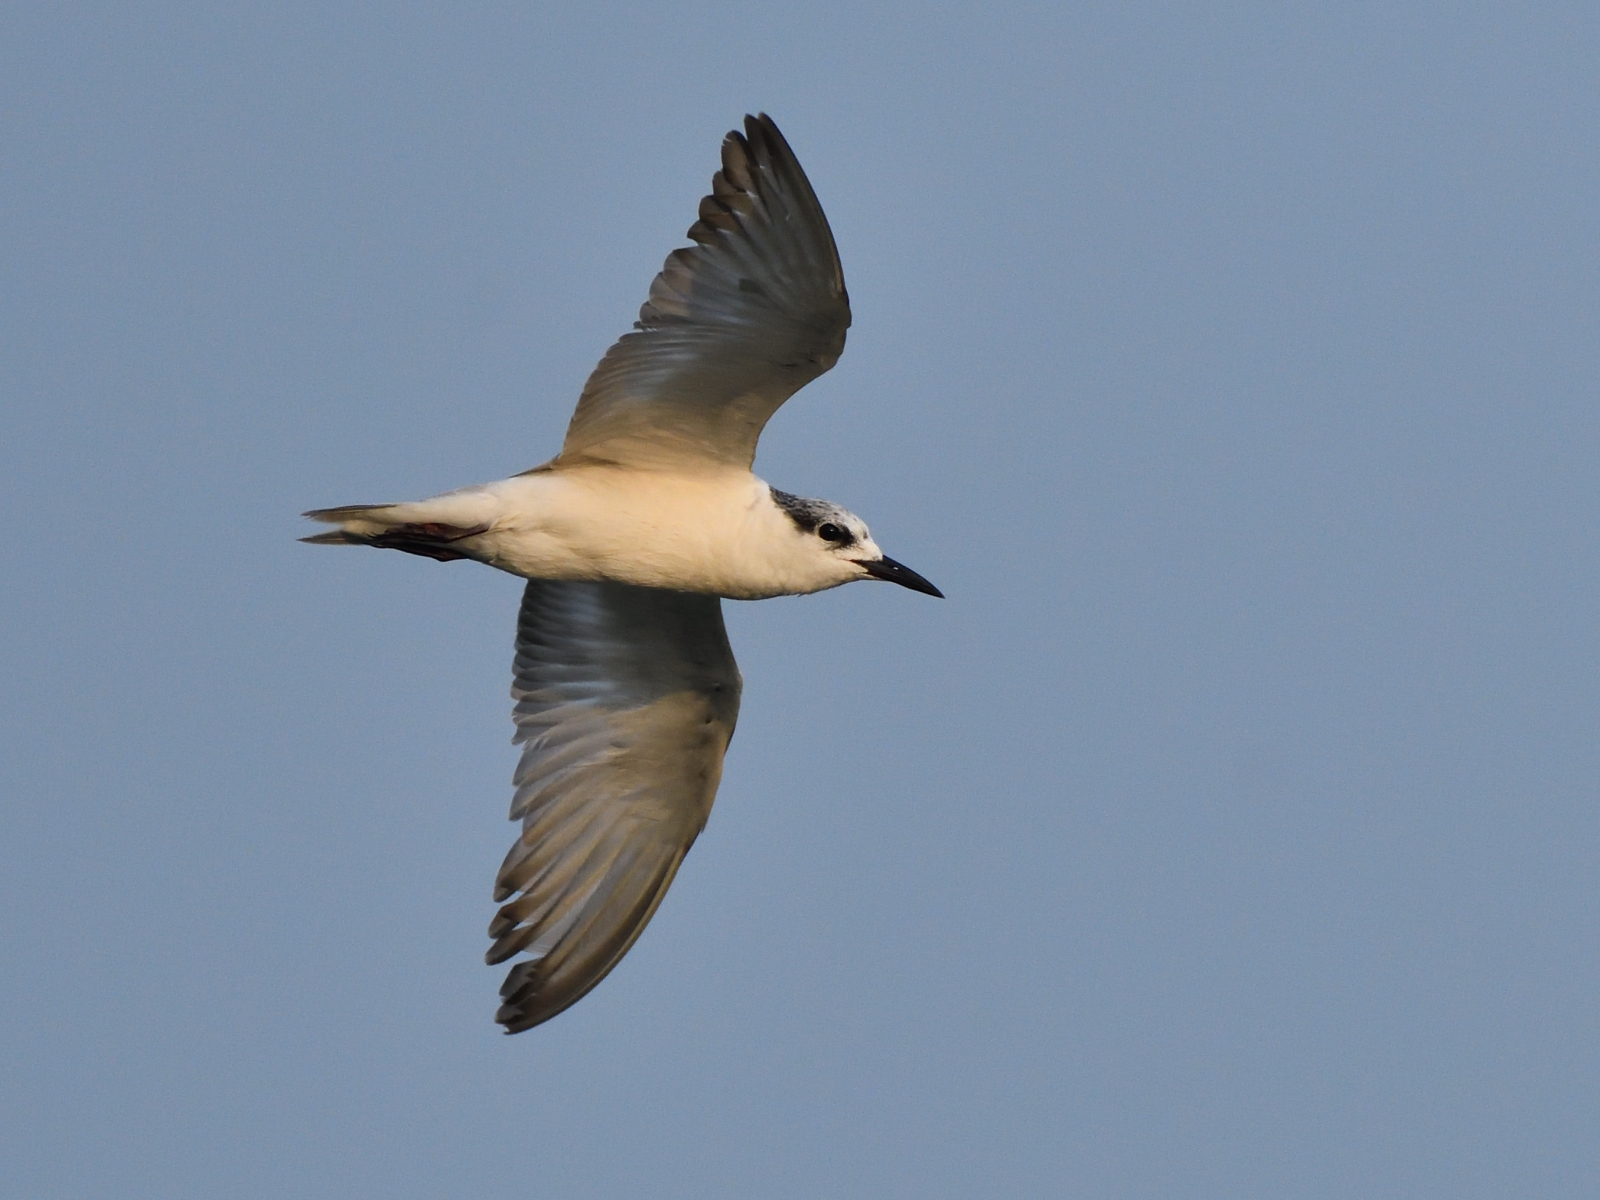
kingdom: Animalia
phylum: Chordata
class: Aves
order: Charadriiformes
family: Laridae
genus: Chlidonias
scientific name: Chlidonias hybrida
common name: Whiskered tern
